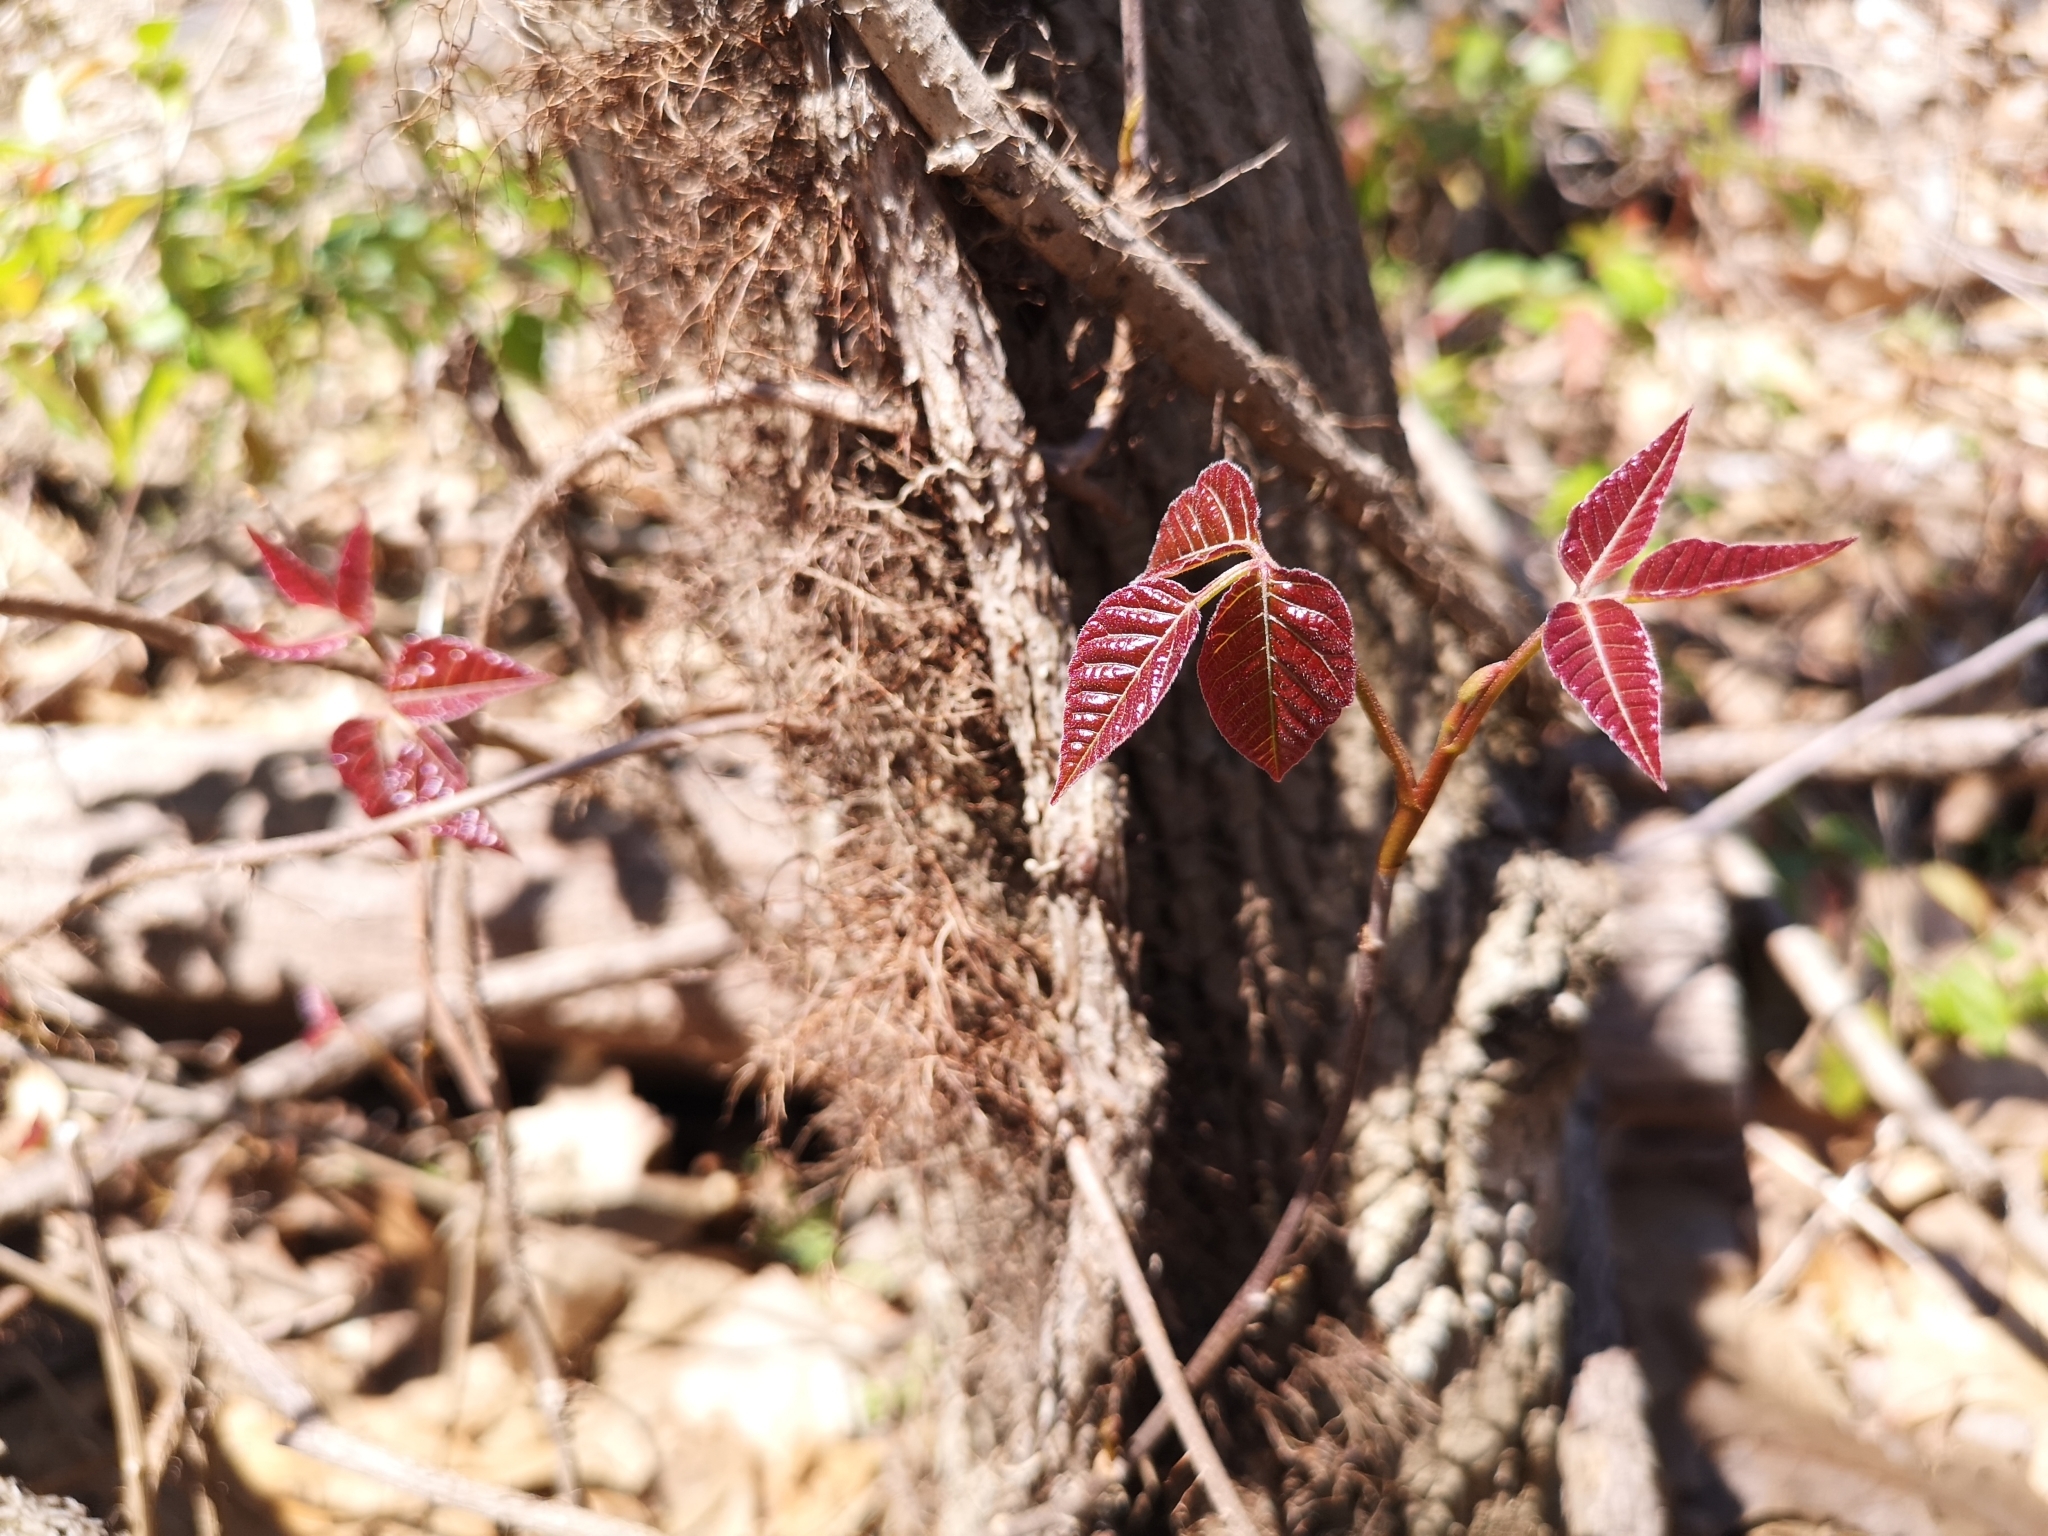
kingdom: Plantae
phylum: Tracheophyta
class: Magnoliopsida
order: Sapindales
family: Anacardiaceae
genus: Toxicodendron
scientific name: Toxicodendron radicans
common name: Poison ivy
